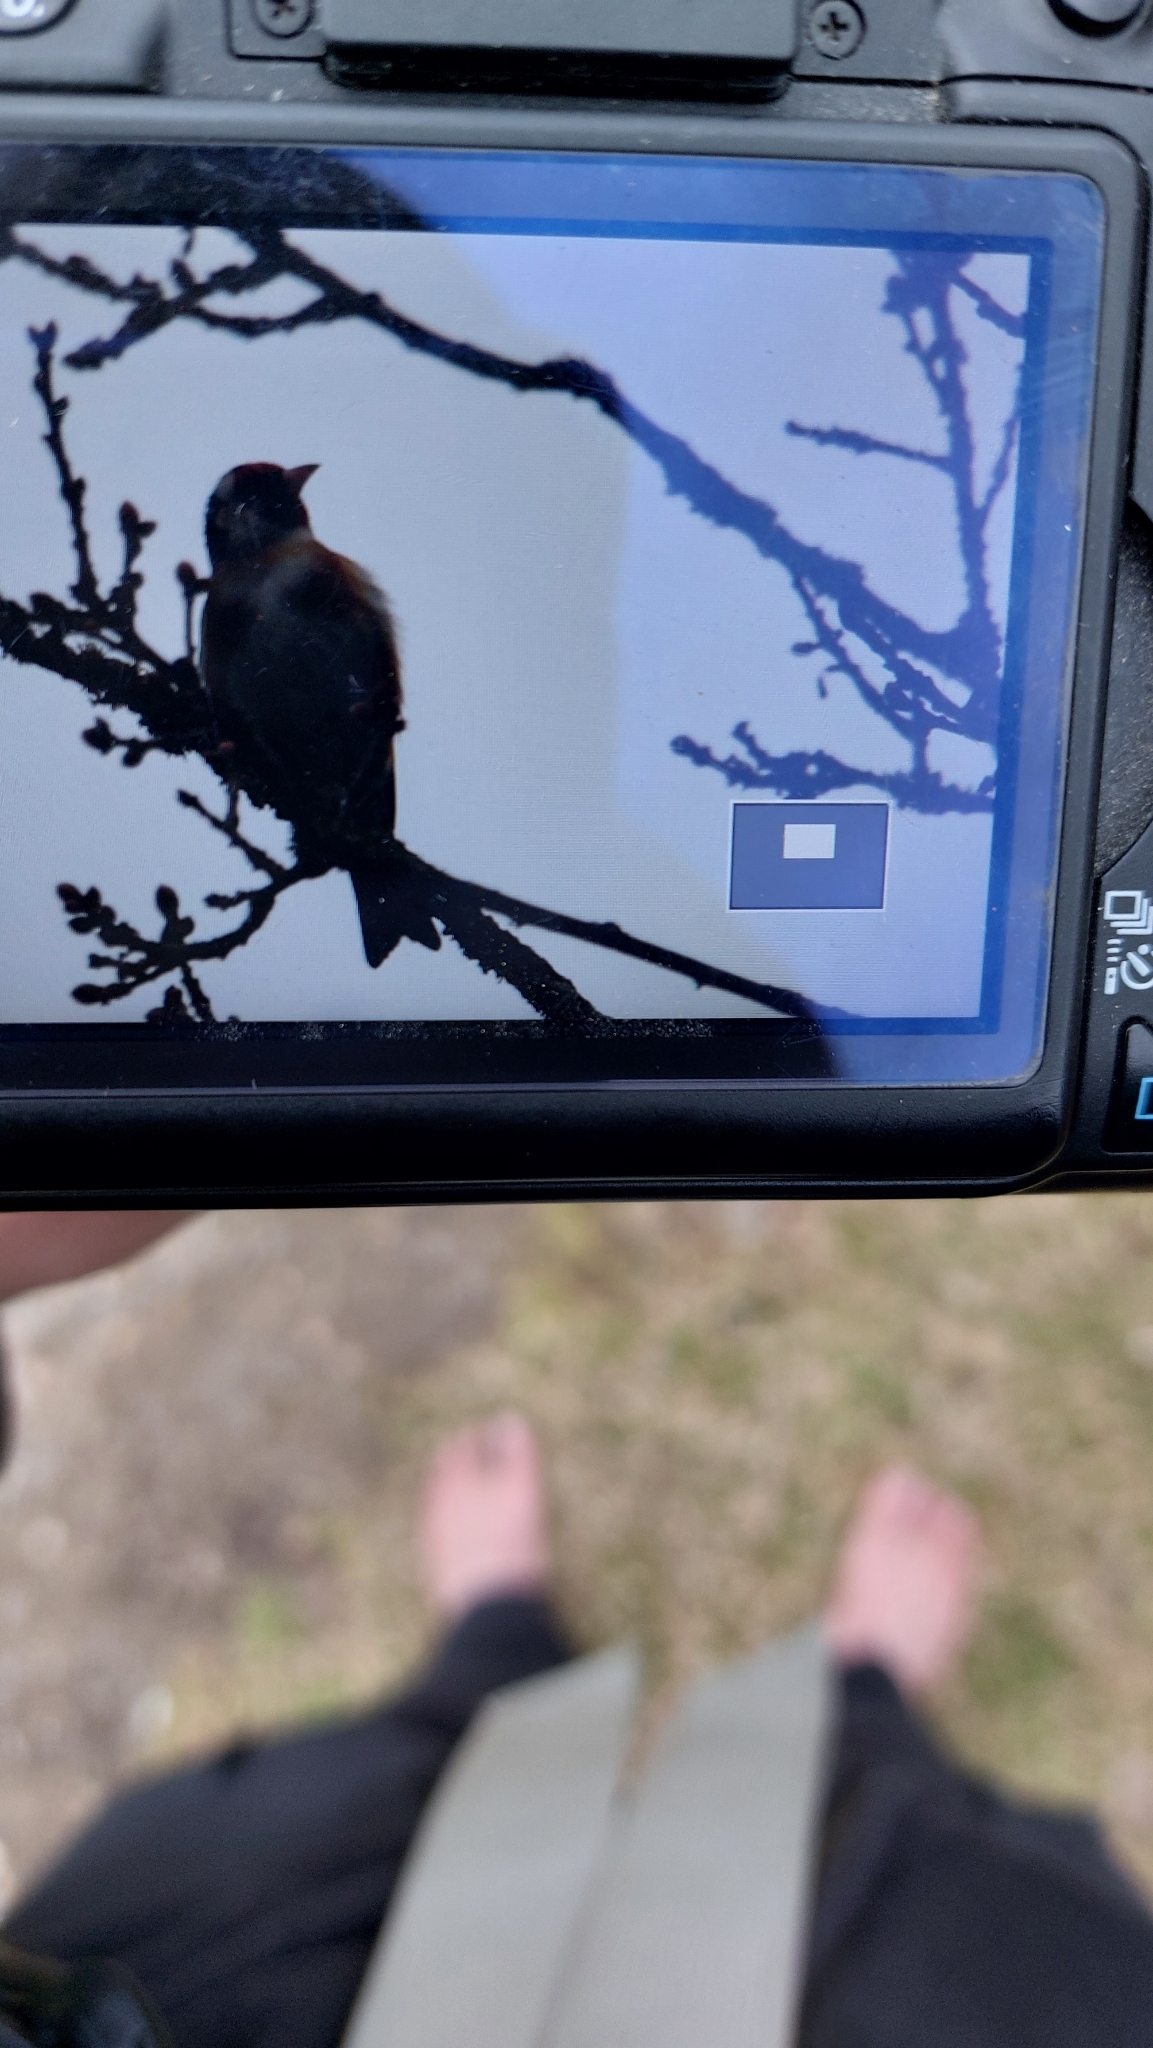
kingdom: Animalia
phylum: Chordata
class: Aves
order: Passeriformes
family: Fringillidae
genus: Carduelis
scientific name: Carduelis carduelis
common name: European goldfinch
